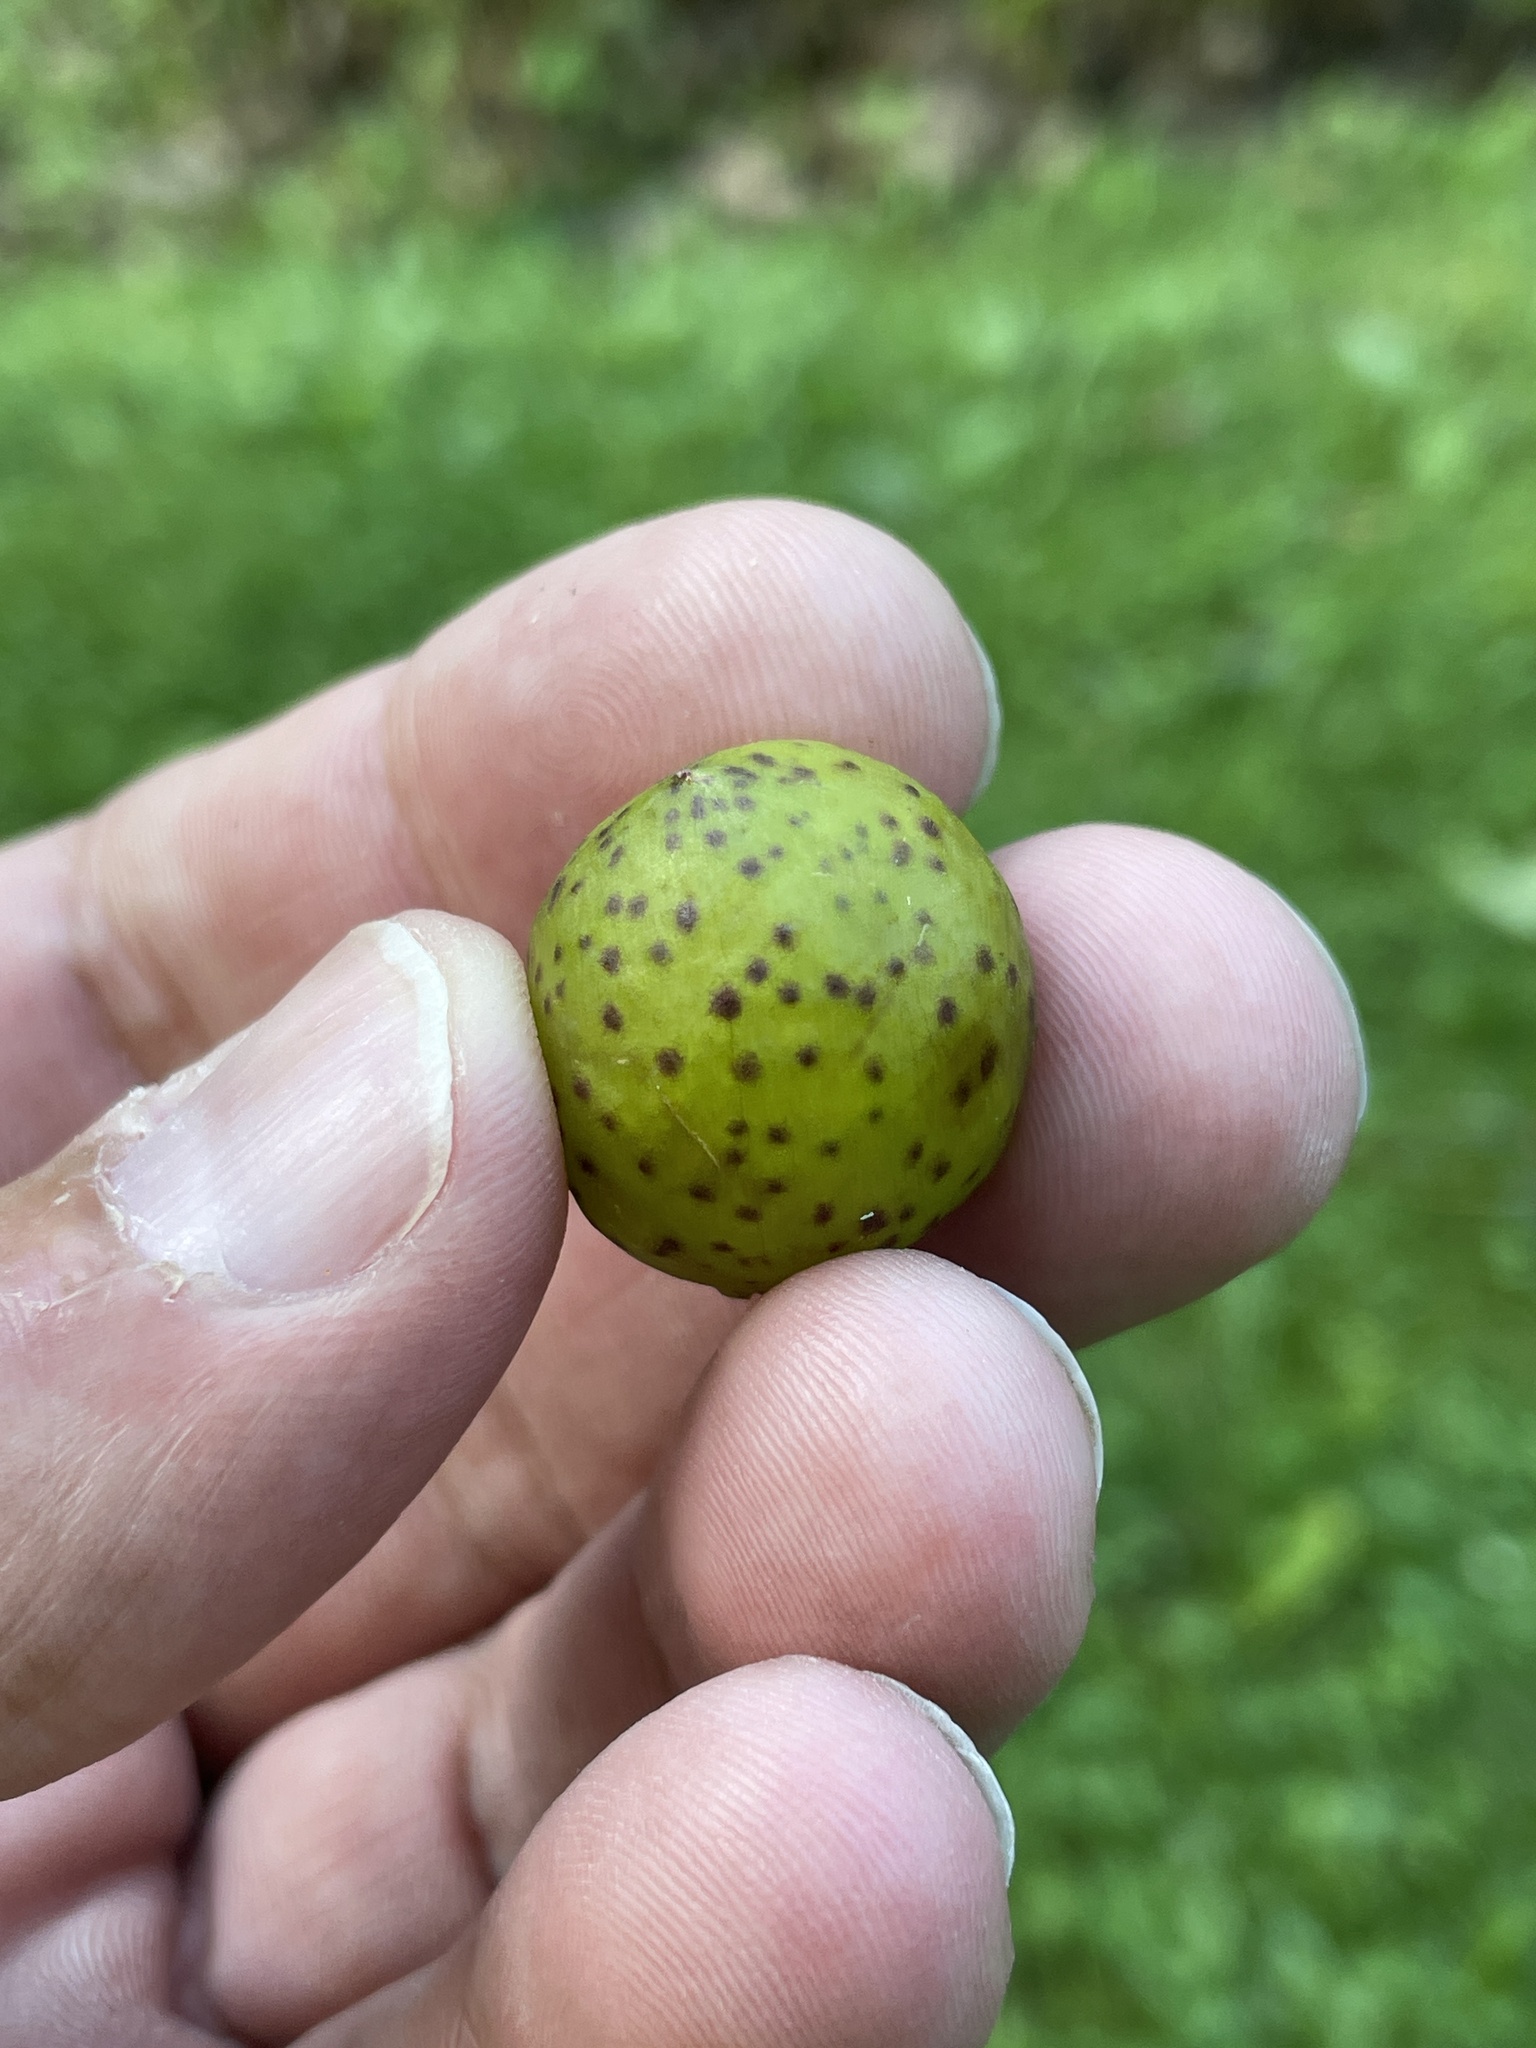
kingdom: Animalia
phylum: Arthropoda
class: Insecta
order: Hymenoptera
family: Cynipidae
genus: Amphibolips
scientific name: Amphibolips
